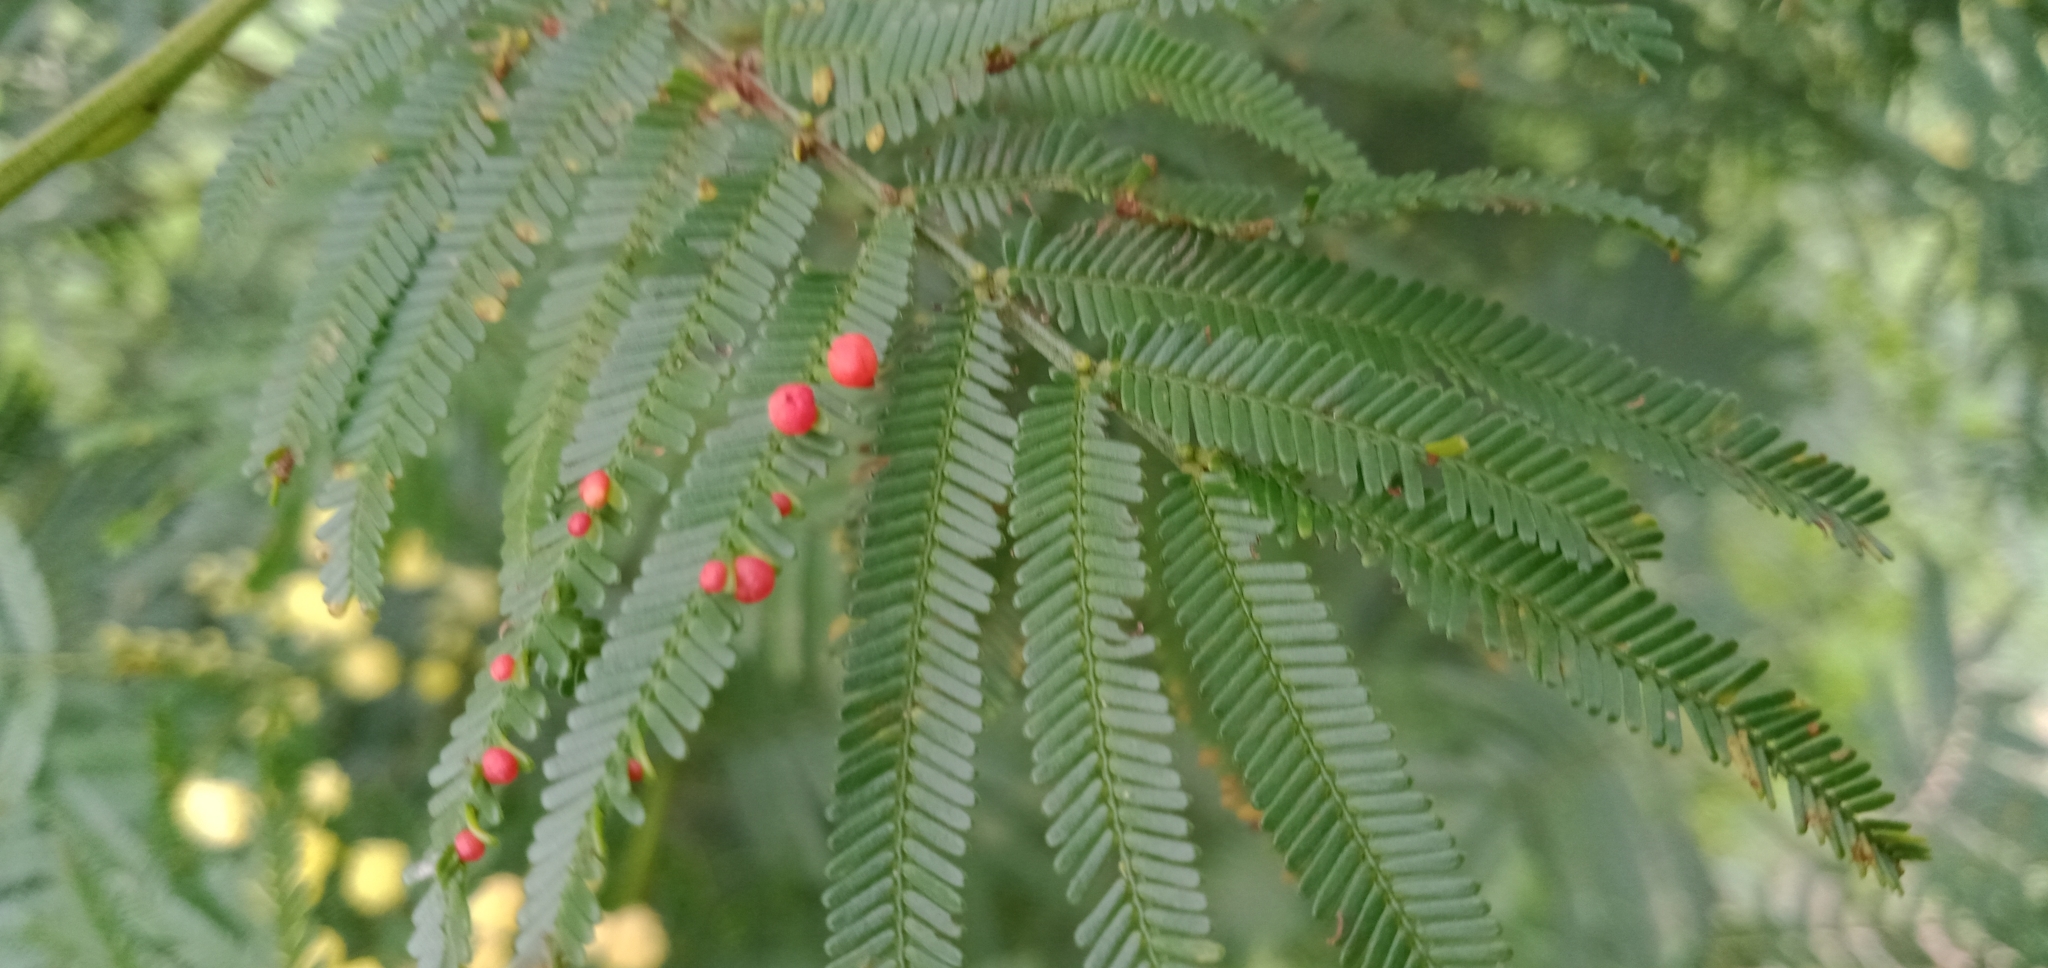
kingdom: Animalia
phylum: Arthropoda
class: Insecta
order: Diptera
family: Cecidomyiidae
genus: Austroacacidiplosis
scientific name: Austroacacidiplosis botrycephalae
